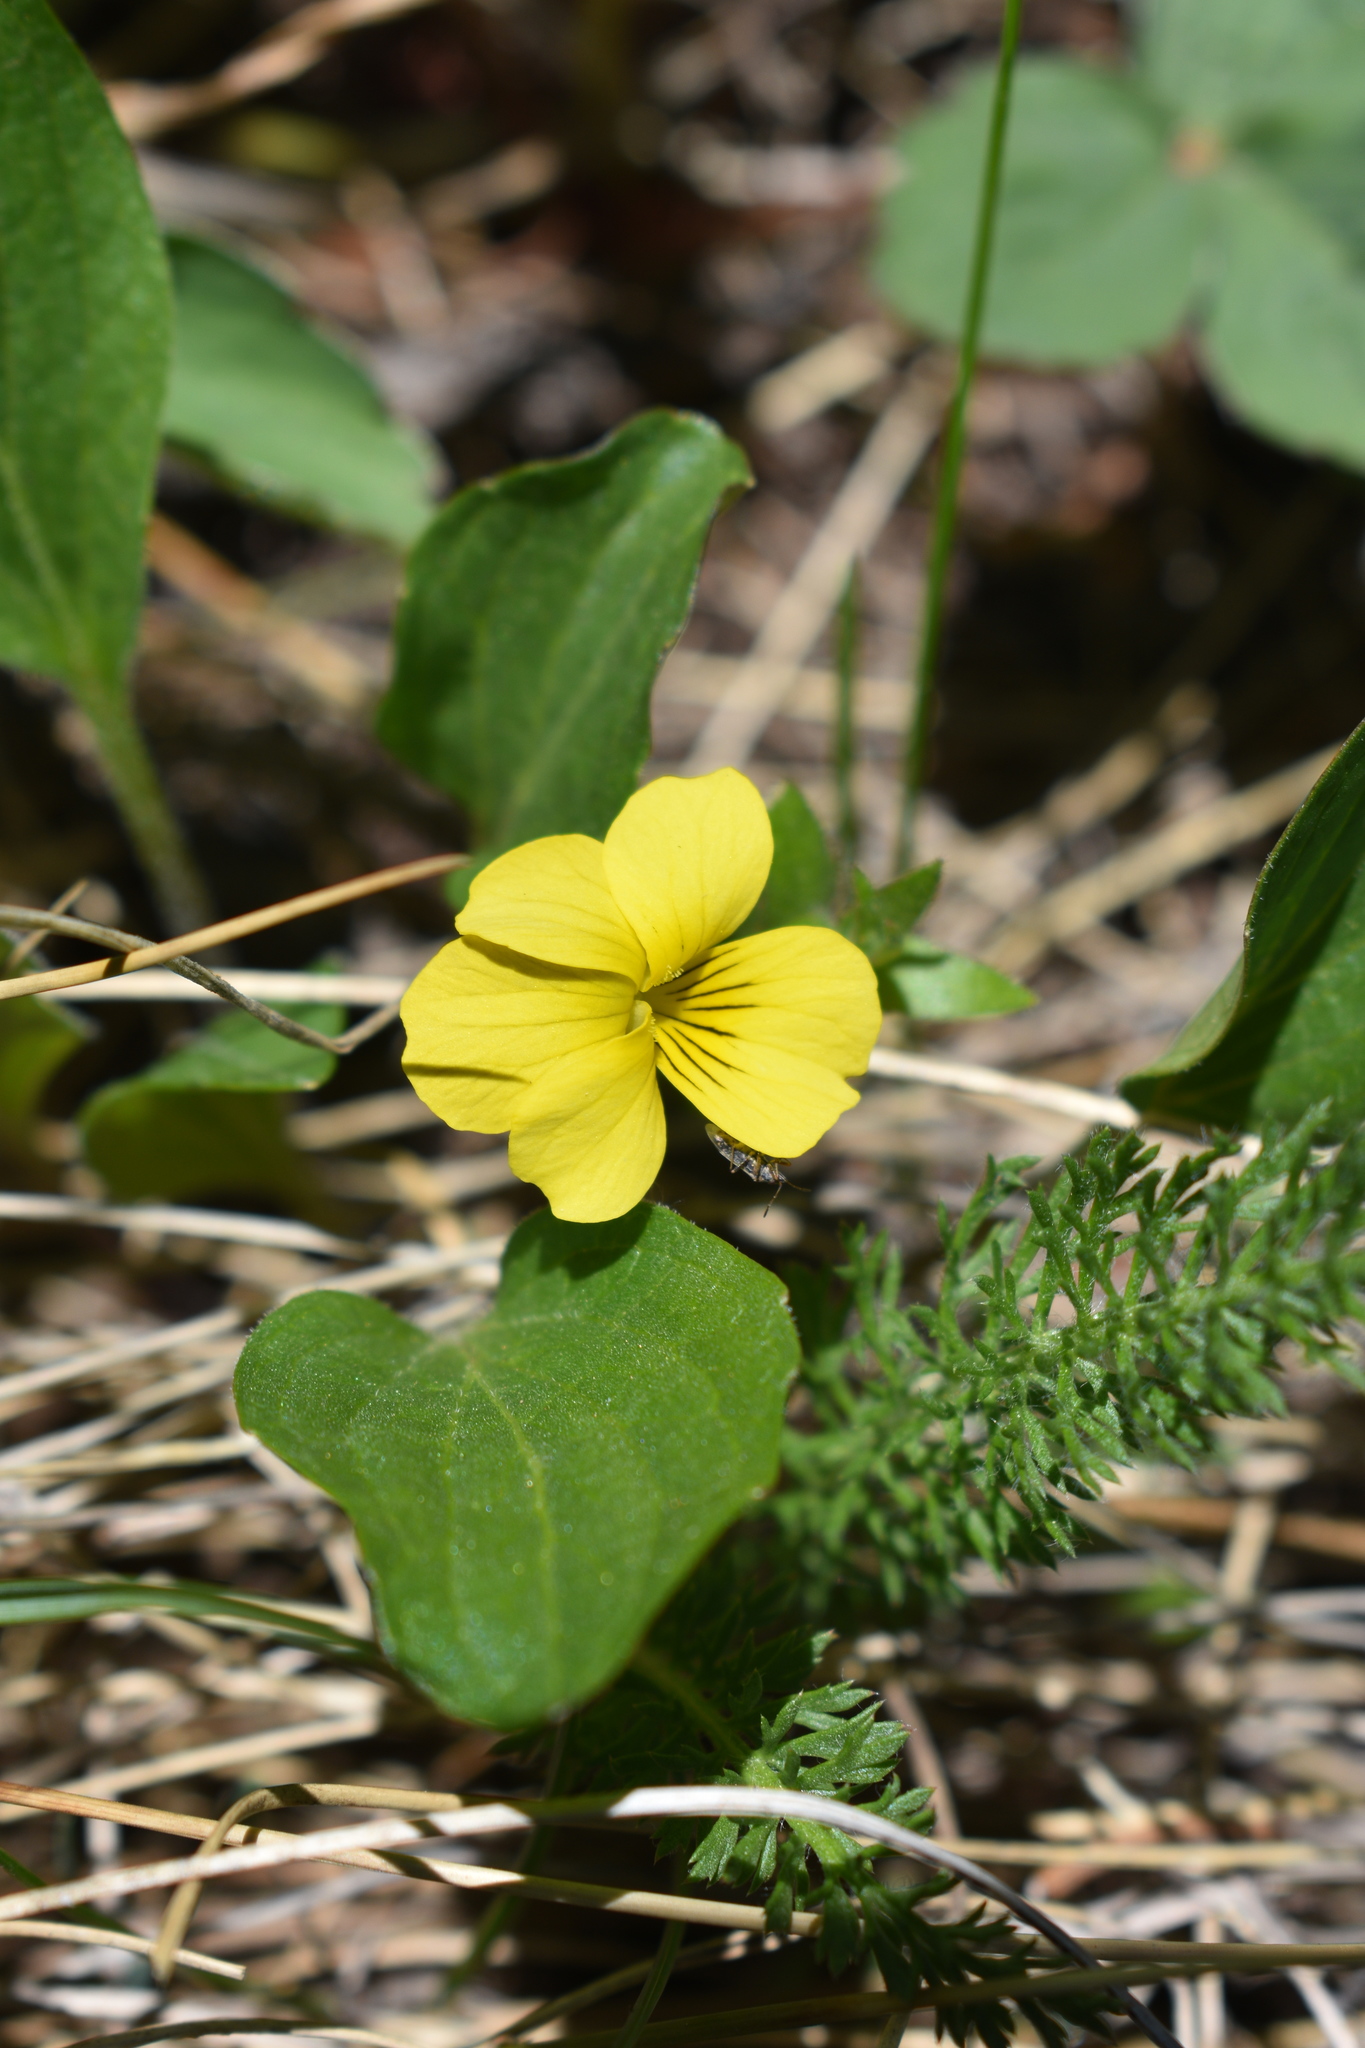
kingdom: Plantae
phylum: Tracheophyta
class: Magnoliopsida
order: Malpighiales
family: Violaceae
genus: Viola
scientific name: Viola praemorsa
